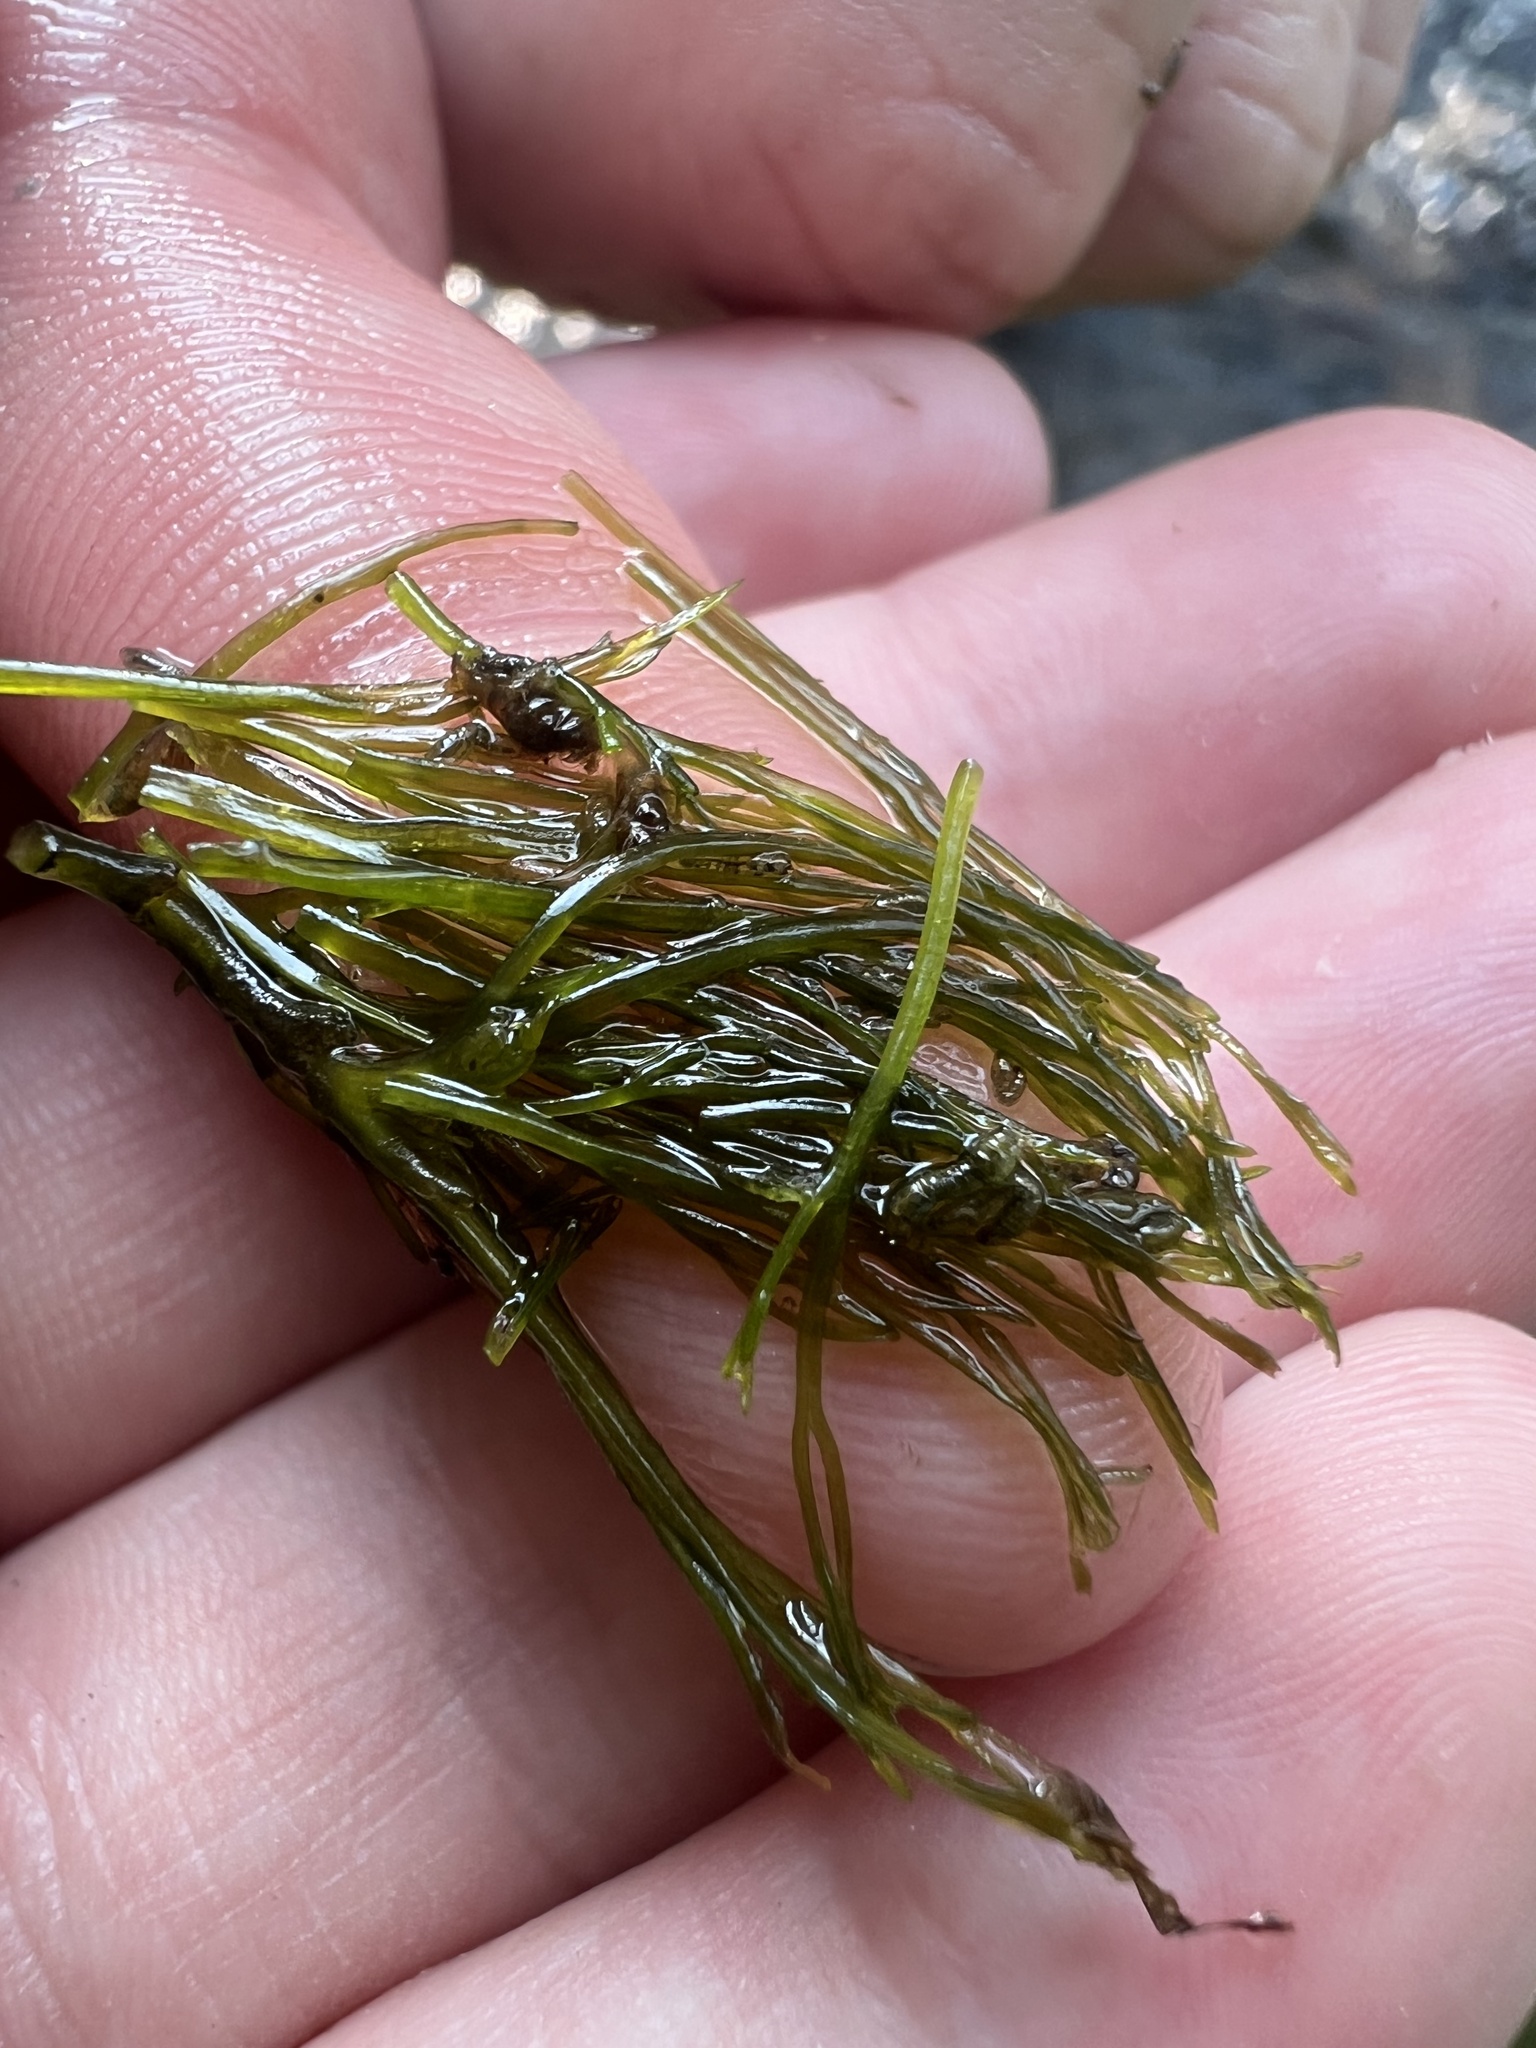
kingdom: Plantae
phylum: Tracheophyta
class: Magnoliopsida
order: Malpighiales
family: Podostemaceae
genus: Podostemum
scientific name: Podostemum ceratophyllum
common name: Horn-leaved riverweed
